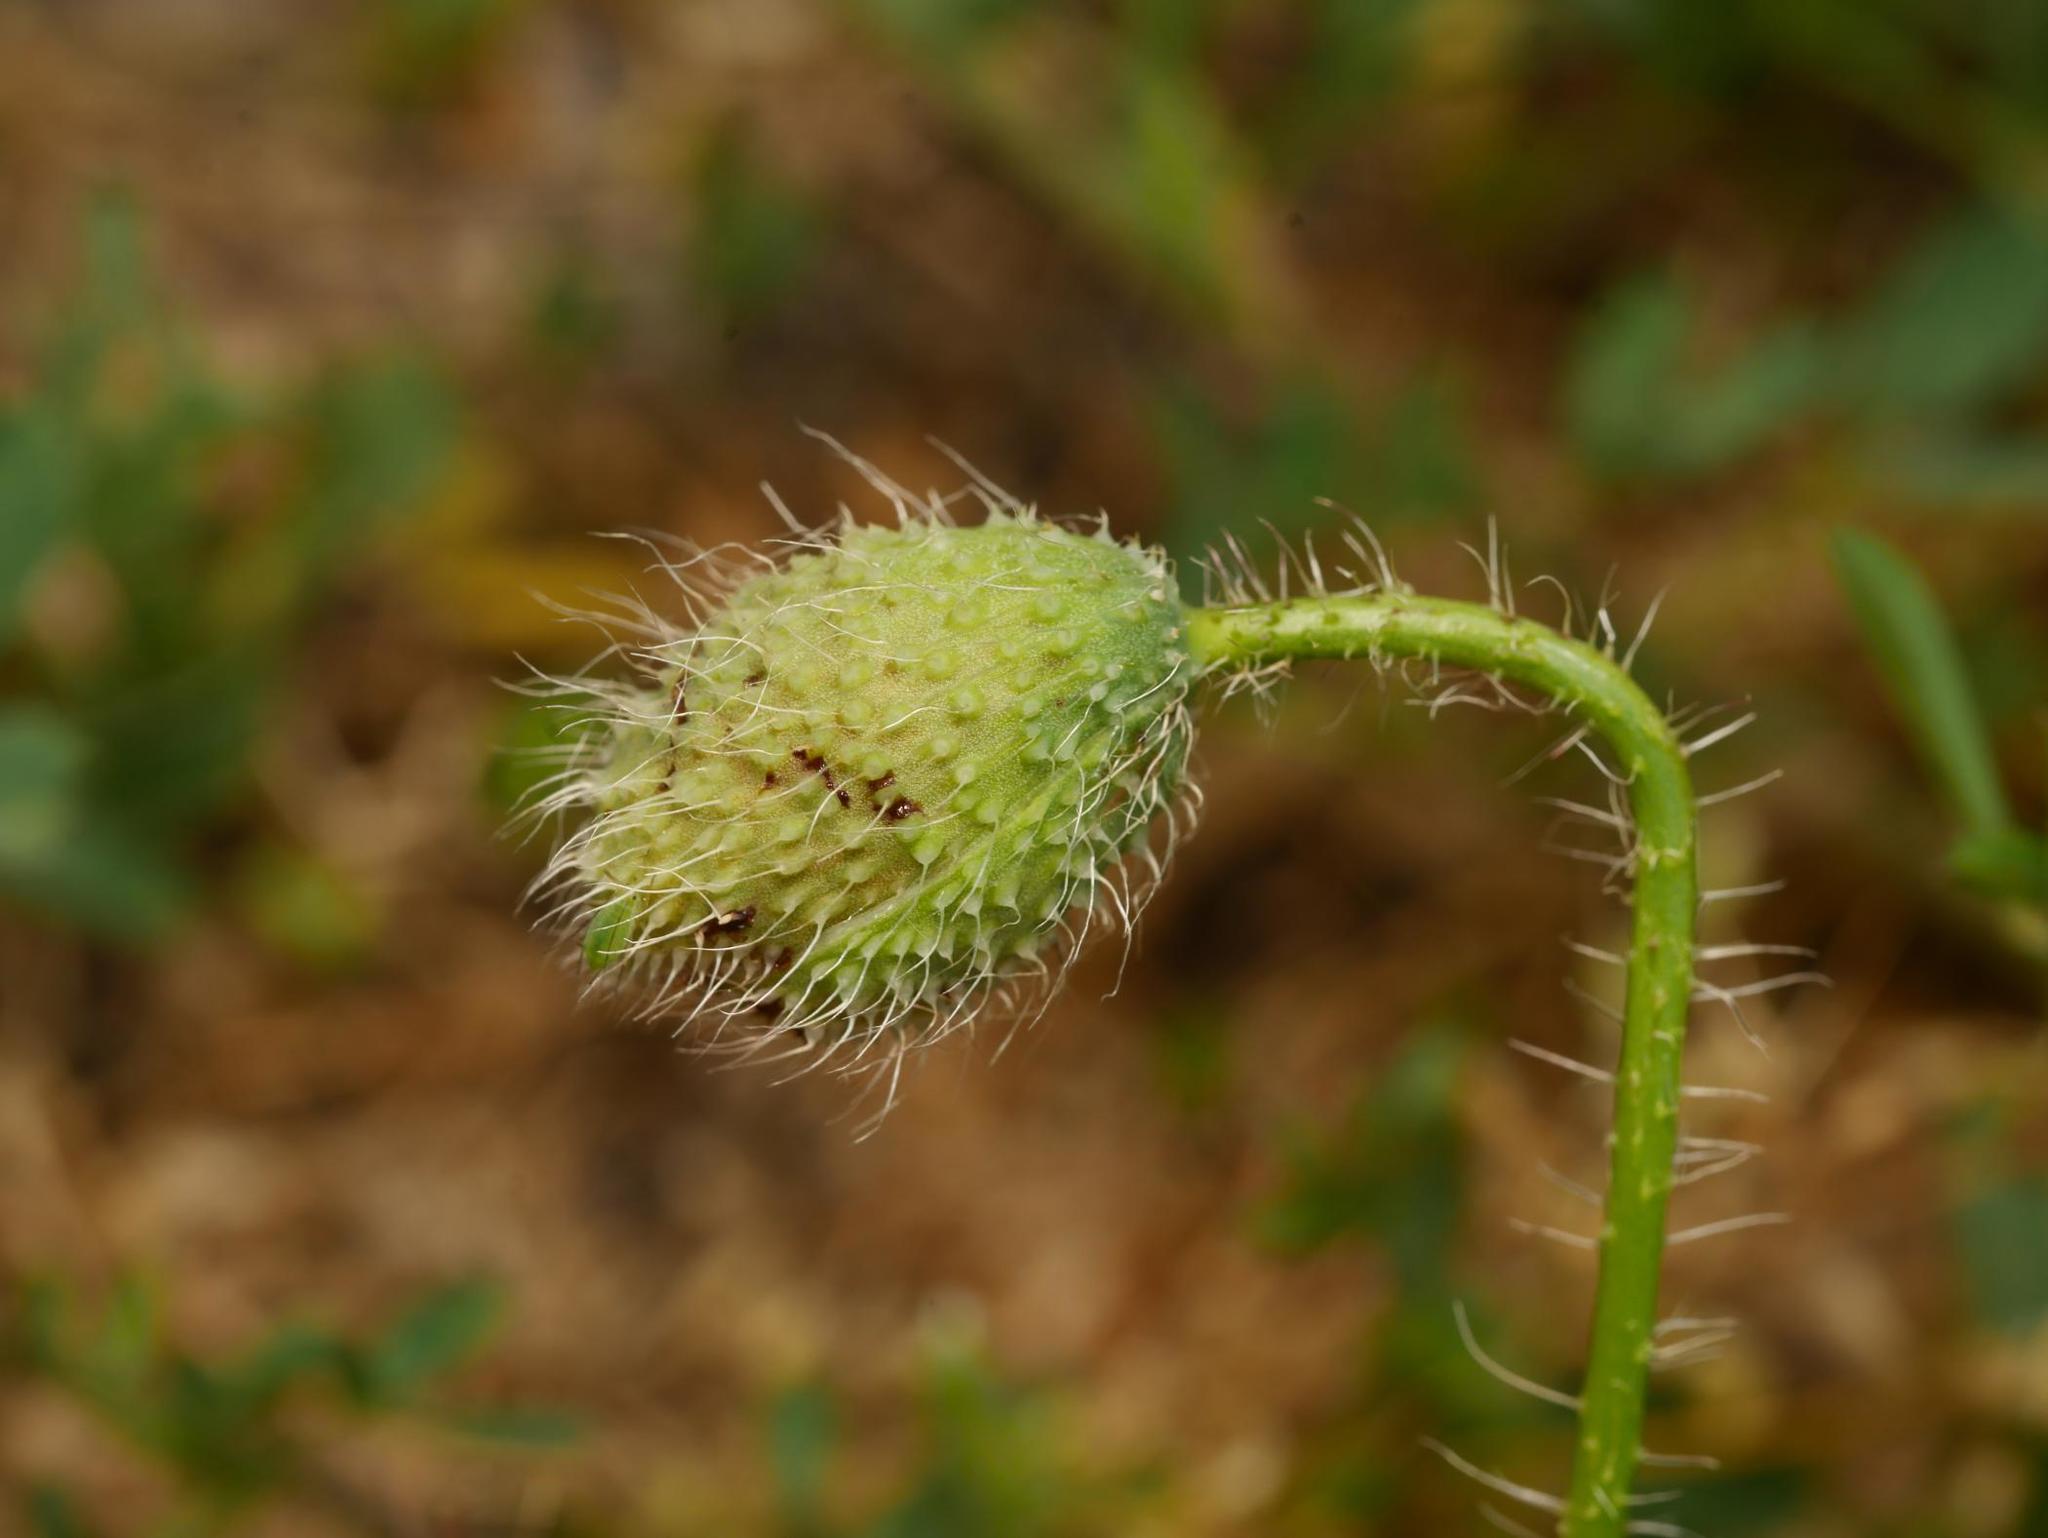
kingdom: Plantae
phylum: Tracheophyta
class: Magnoliopsida
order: Ranunculales
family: Papaveraceae
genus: Papaver
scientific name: Papaver rhoeas
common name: Corn poppy
